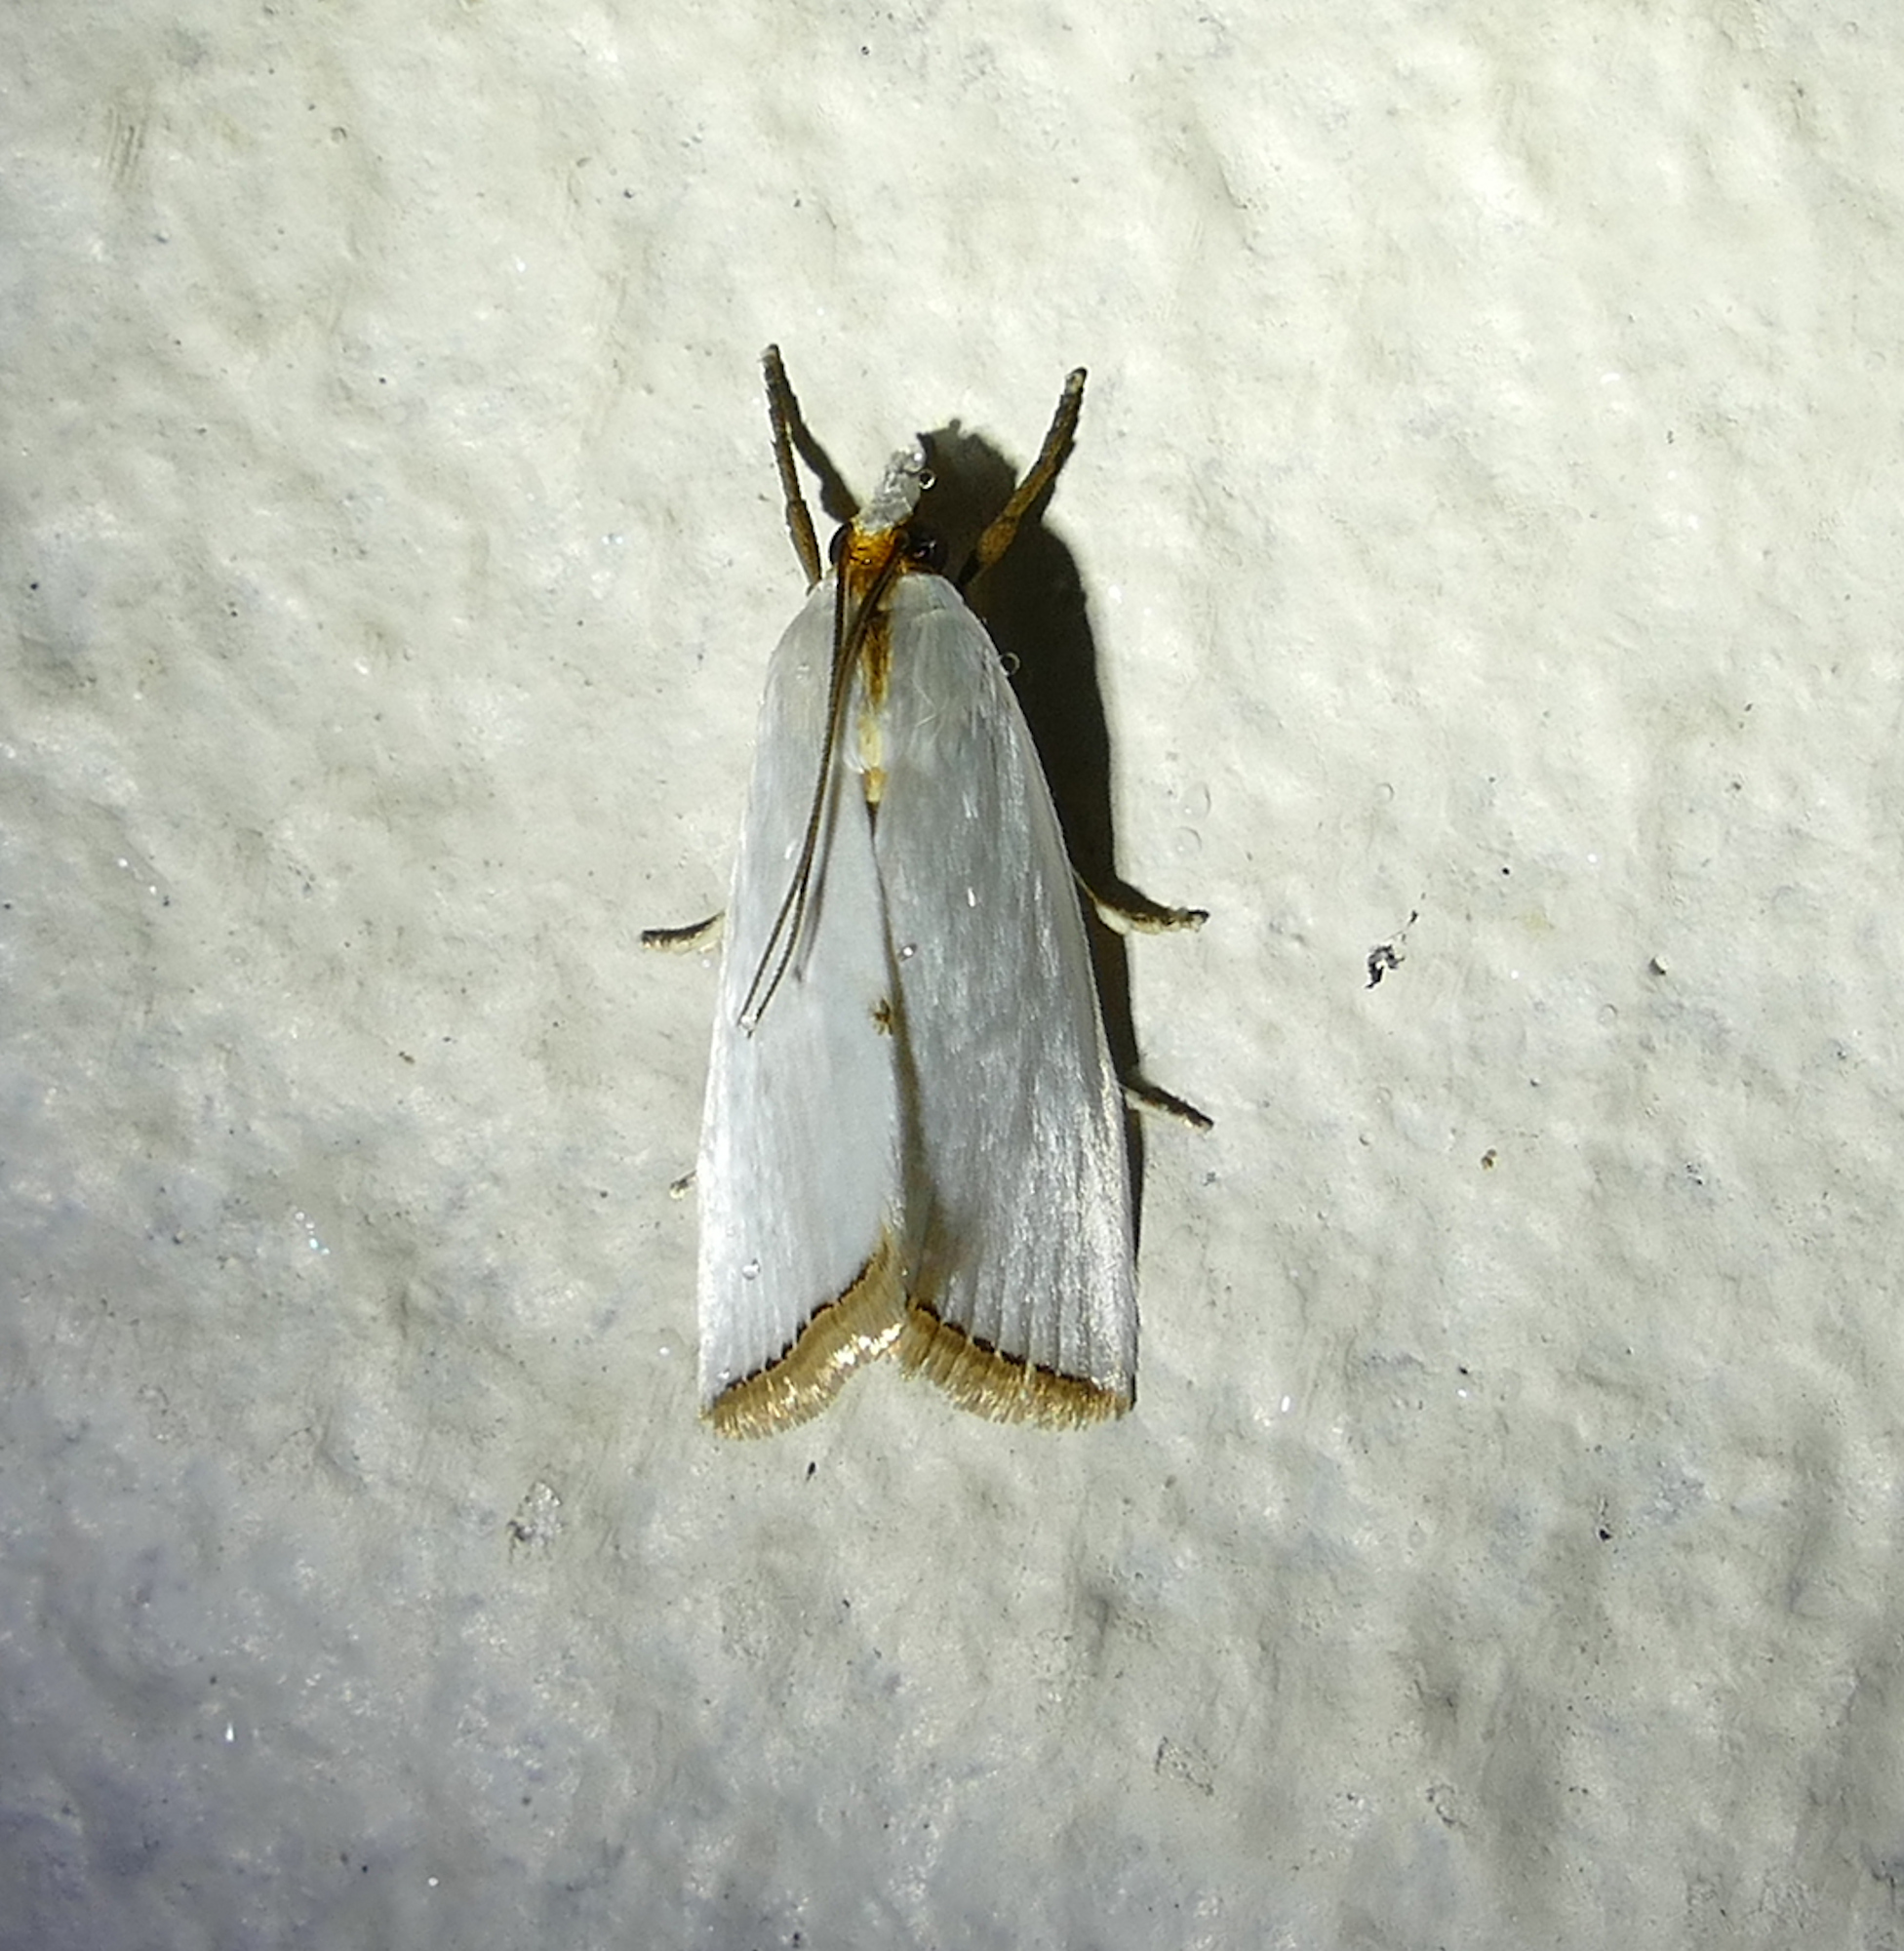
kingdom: Animalia
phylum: Arthropoda
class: Insecta
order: Lepidoptera
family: Crambidae
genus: Argyria
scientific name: Argyria nivalis
